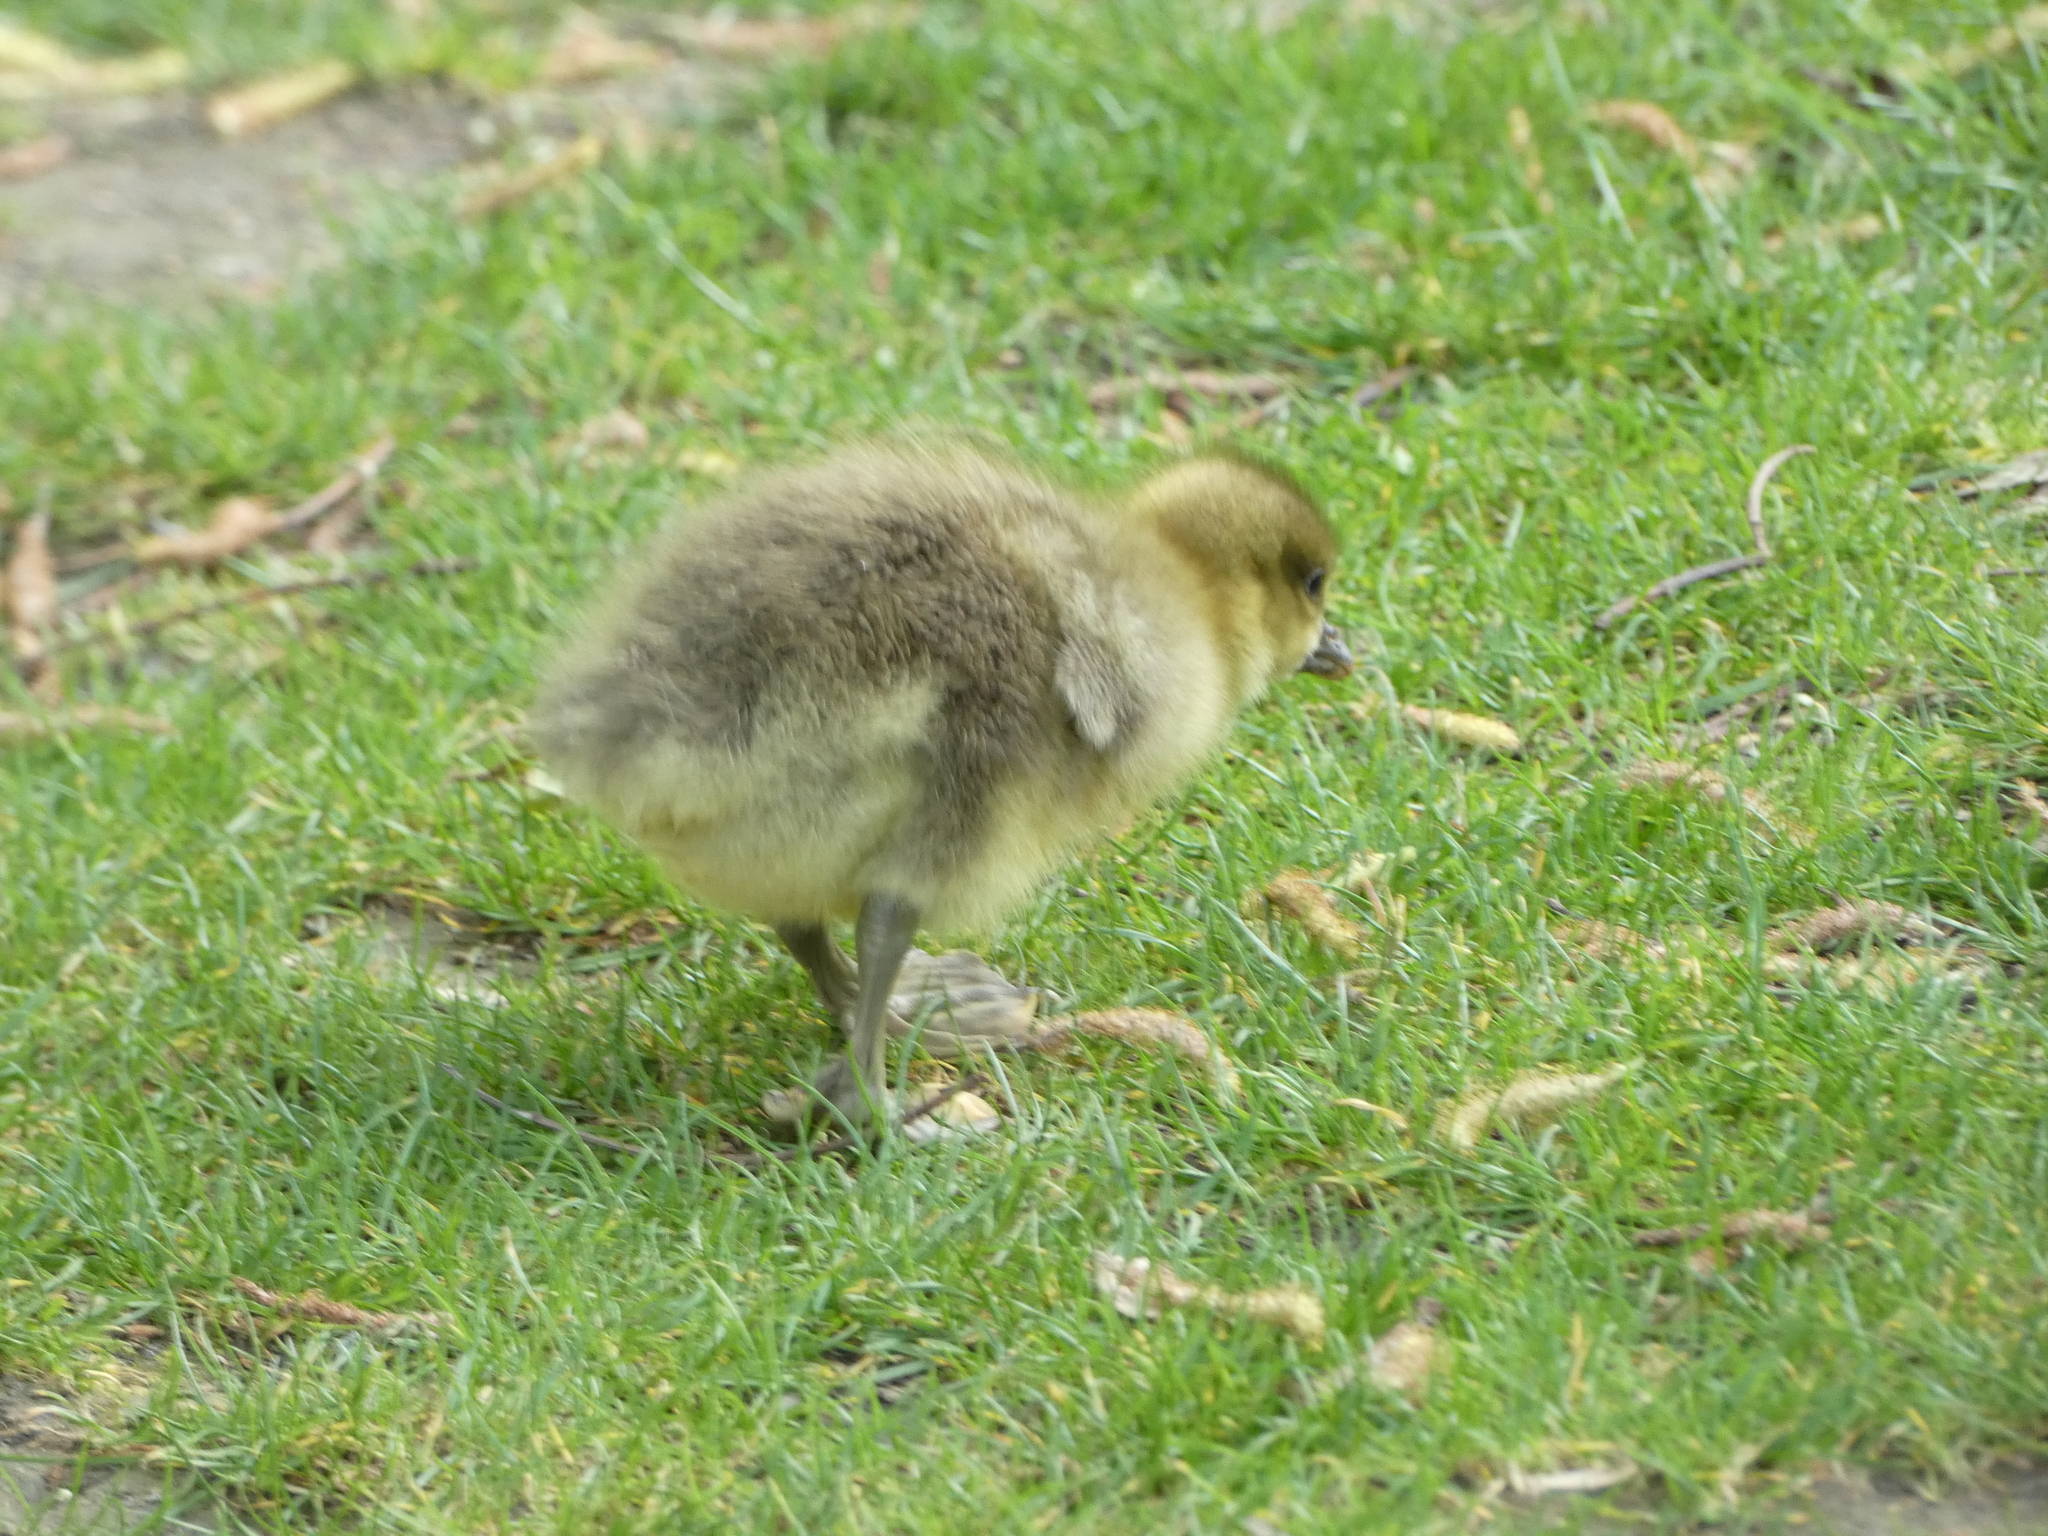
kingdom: Animalia
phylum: Chordata
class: Aves
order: Anseriformes
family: Anatidae
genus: Anser
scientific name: Anser anser
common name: Greylag goose
